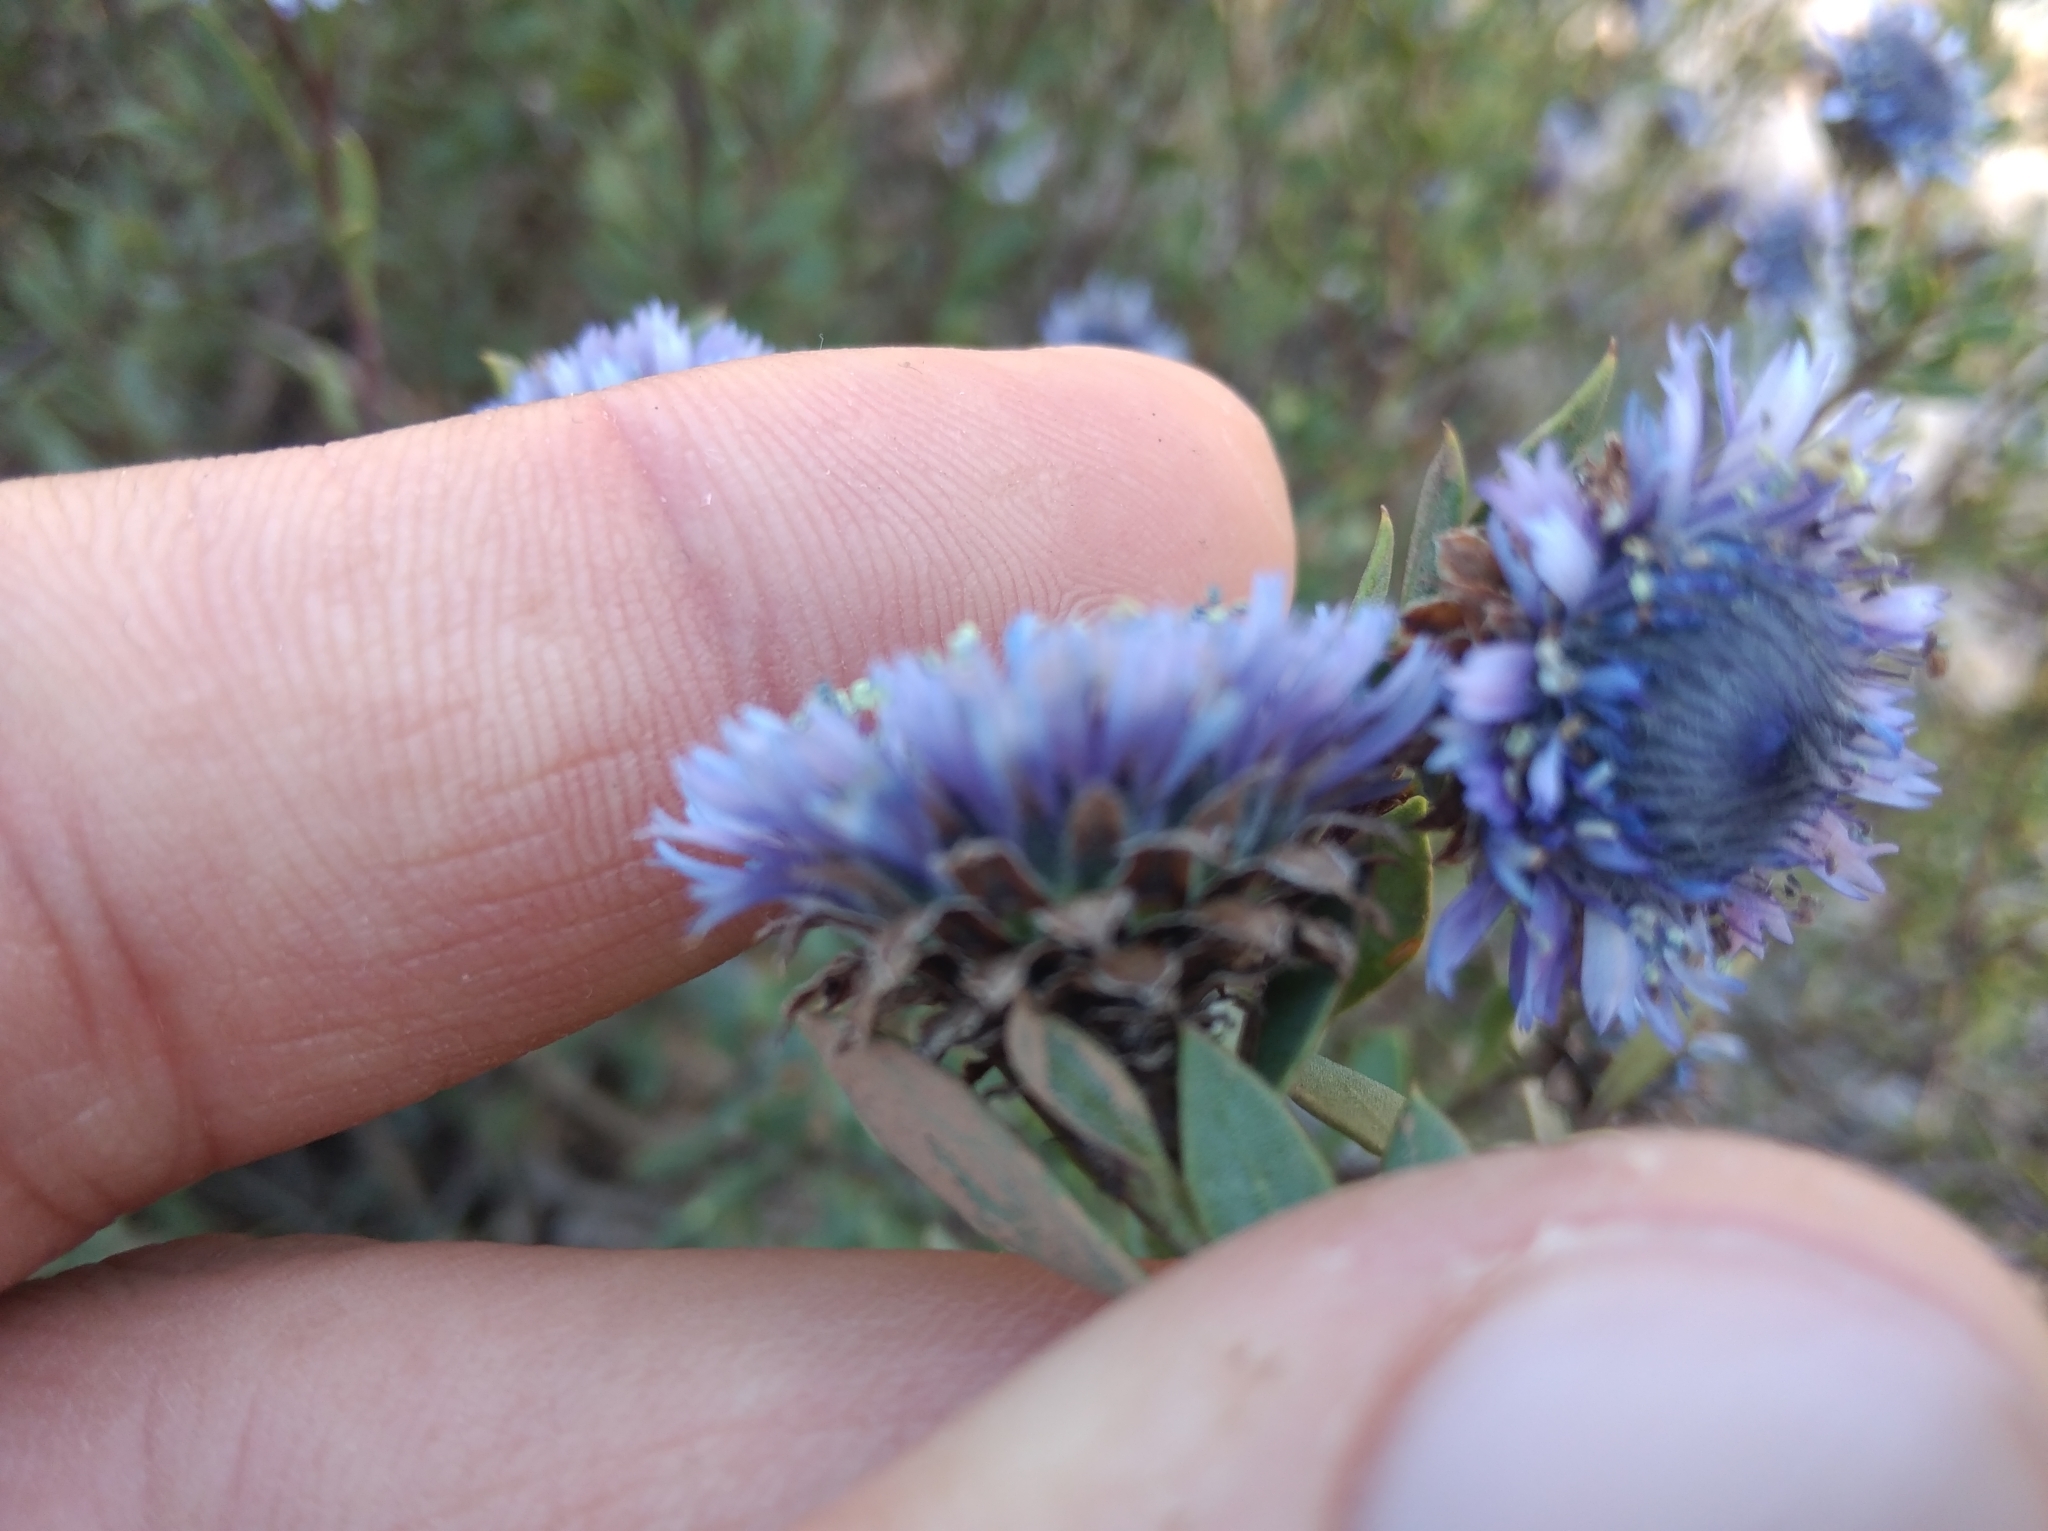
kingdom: Plantae
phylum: Tracheophyta
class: Magnoliopsida
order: Lamiales
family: Plantaginaceae
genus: Globularia
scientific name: Globularia alypum
